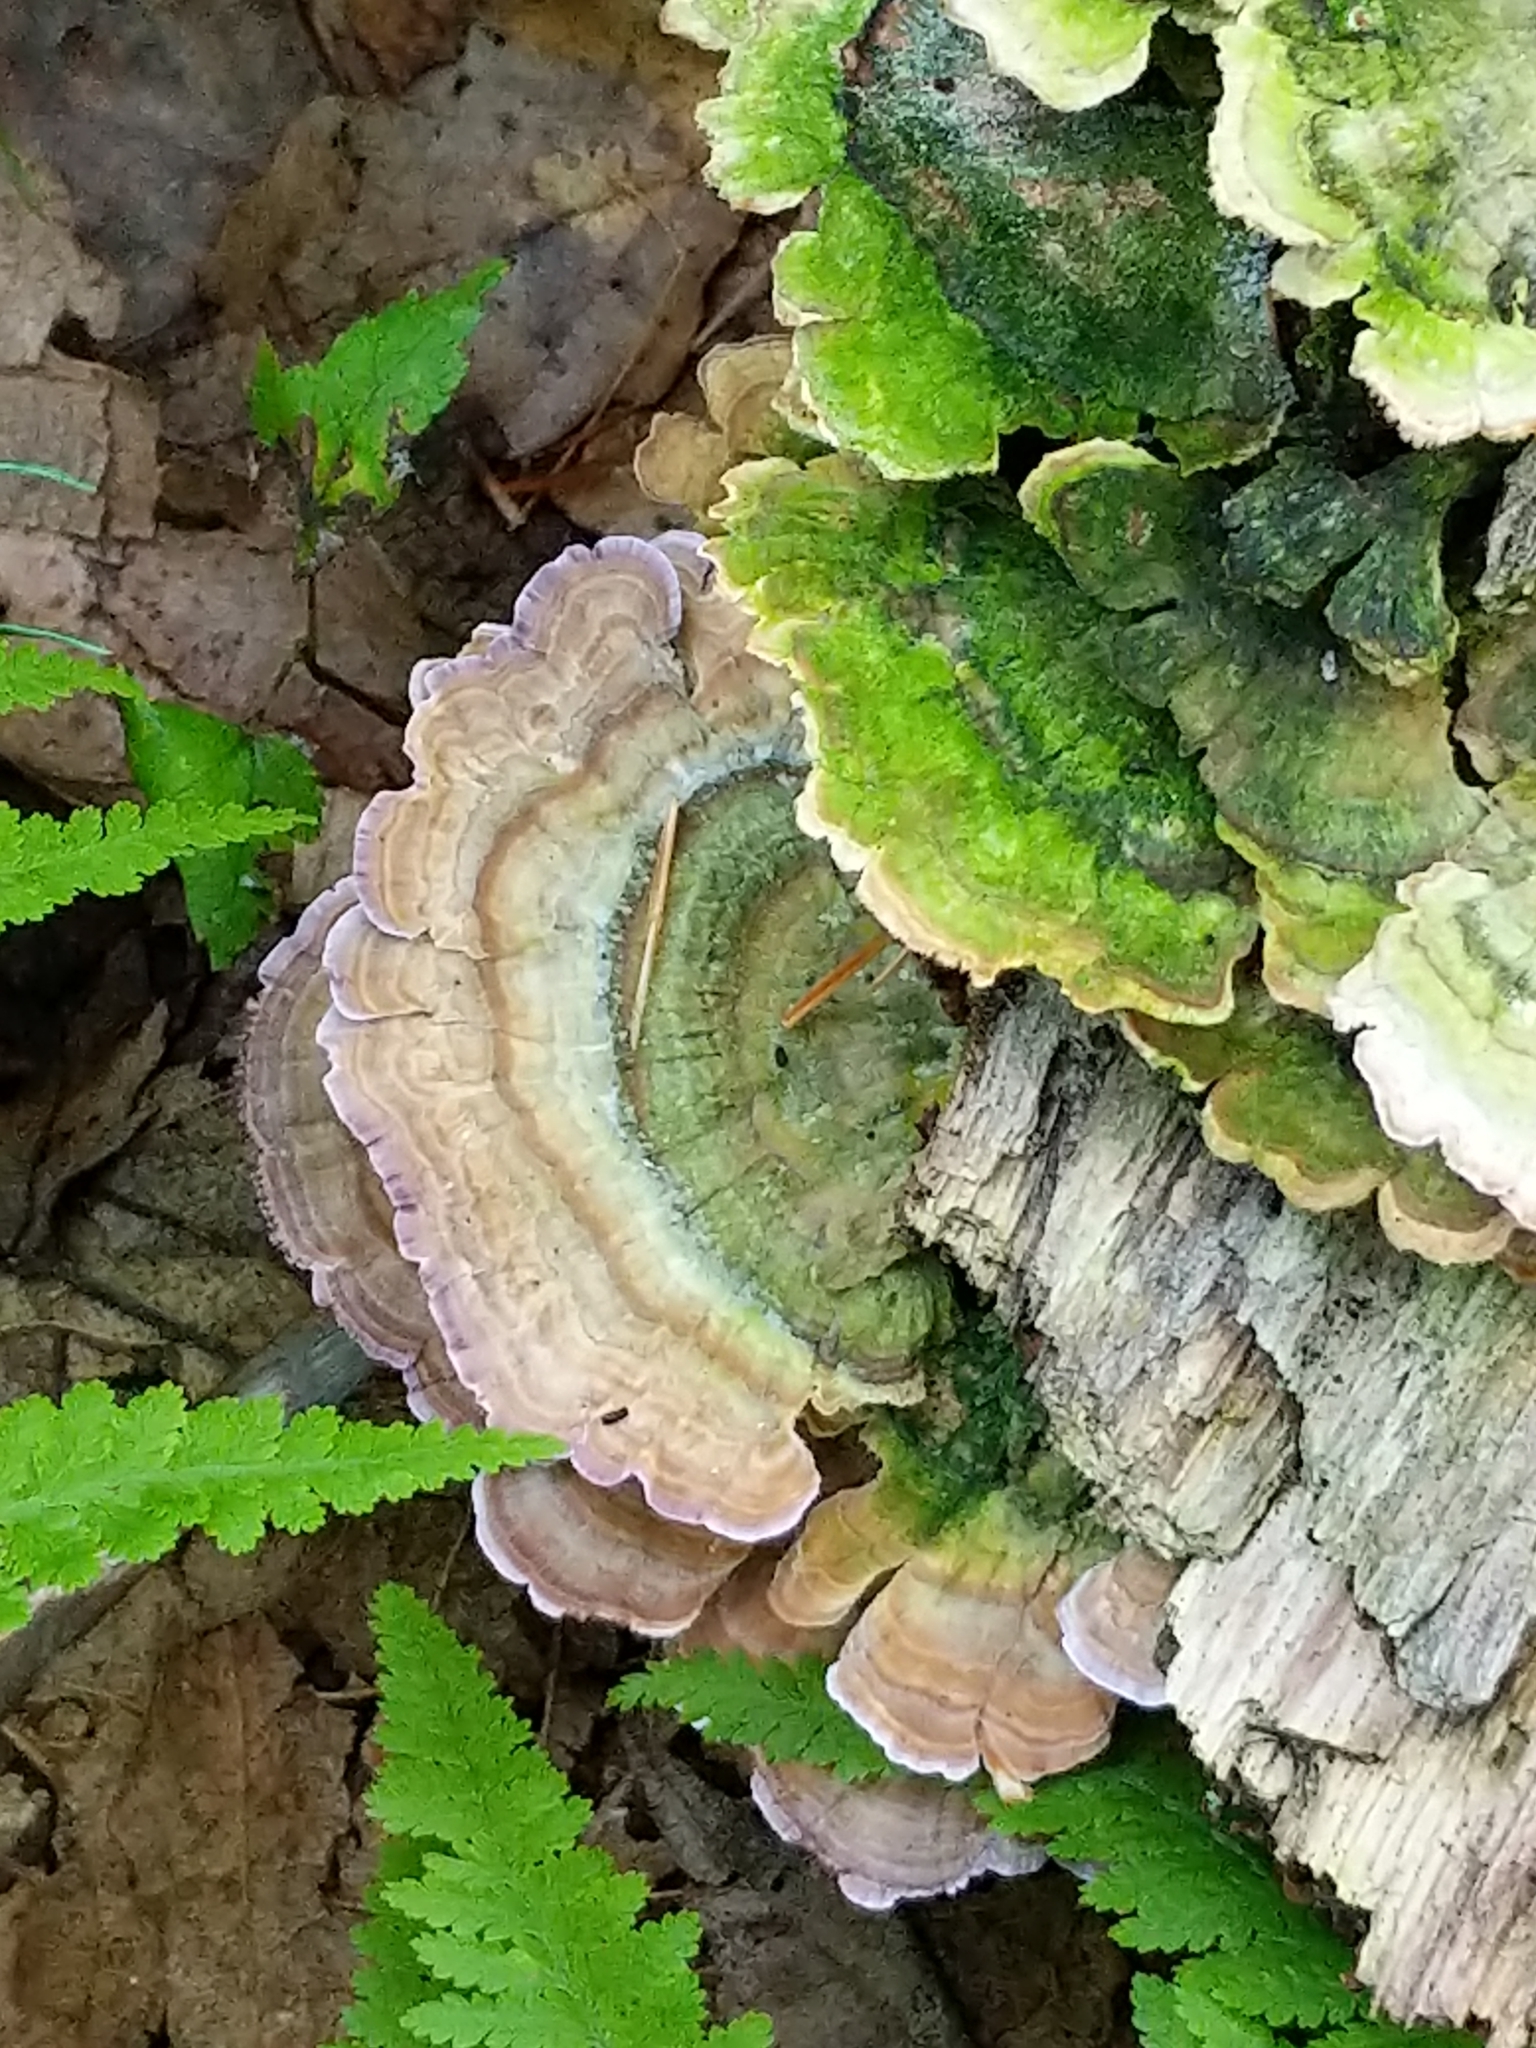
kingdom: Fungi
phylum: Basidiomycota
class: Agaricomycetes
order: Hymenochaetales
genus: Trichaptum
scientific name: Trichaptum biforme
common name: Violet-toothed polypore
